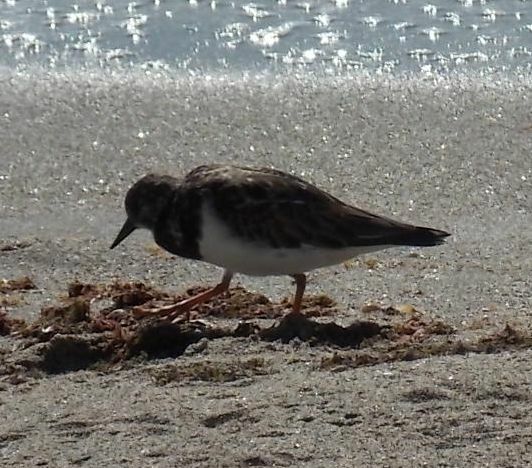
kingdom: Animalia
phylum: Chordata
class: Aves
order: Charadriiformes
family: Scolopacidae
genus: Arenaria
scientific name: Arenaria interpres
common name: Ruddy turnstone
